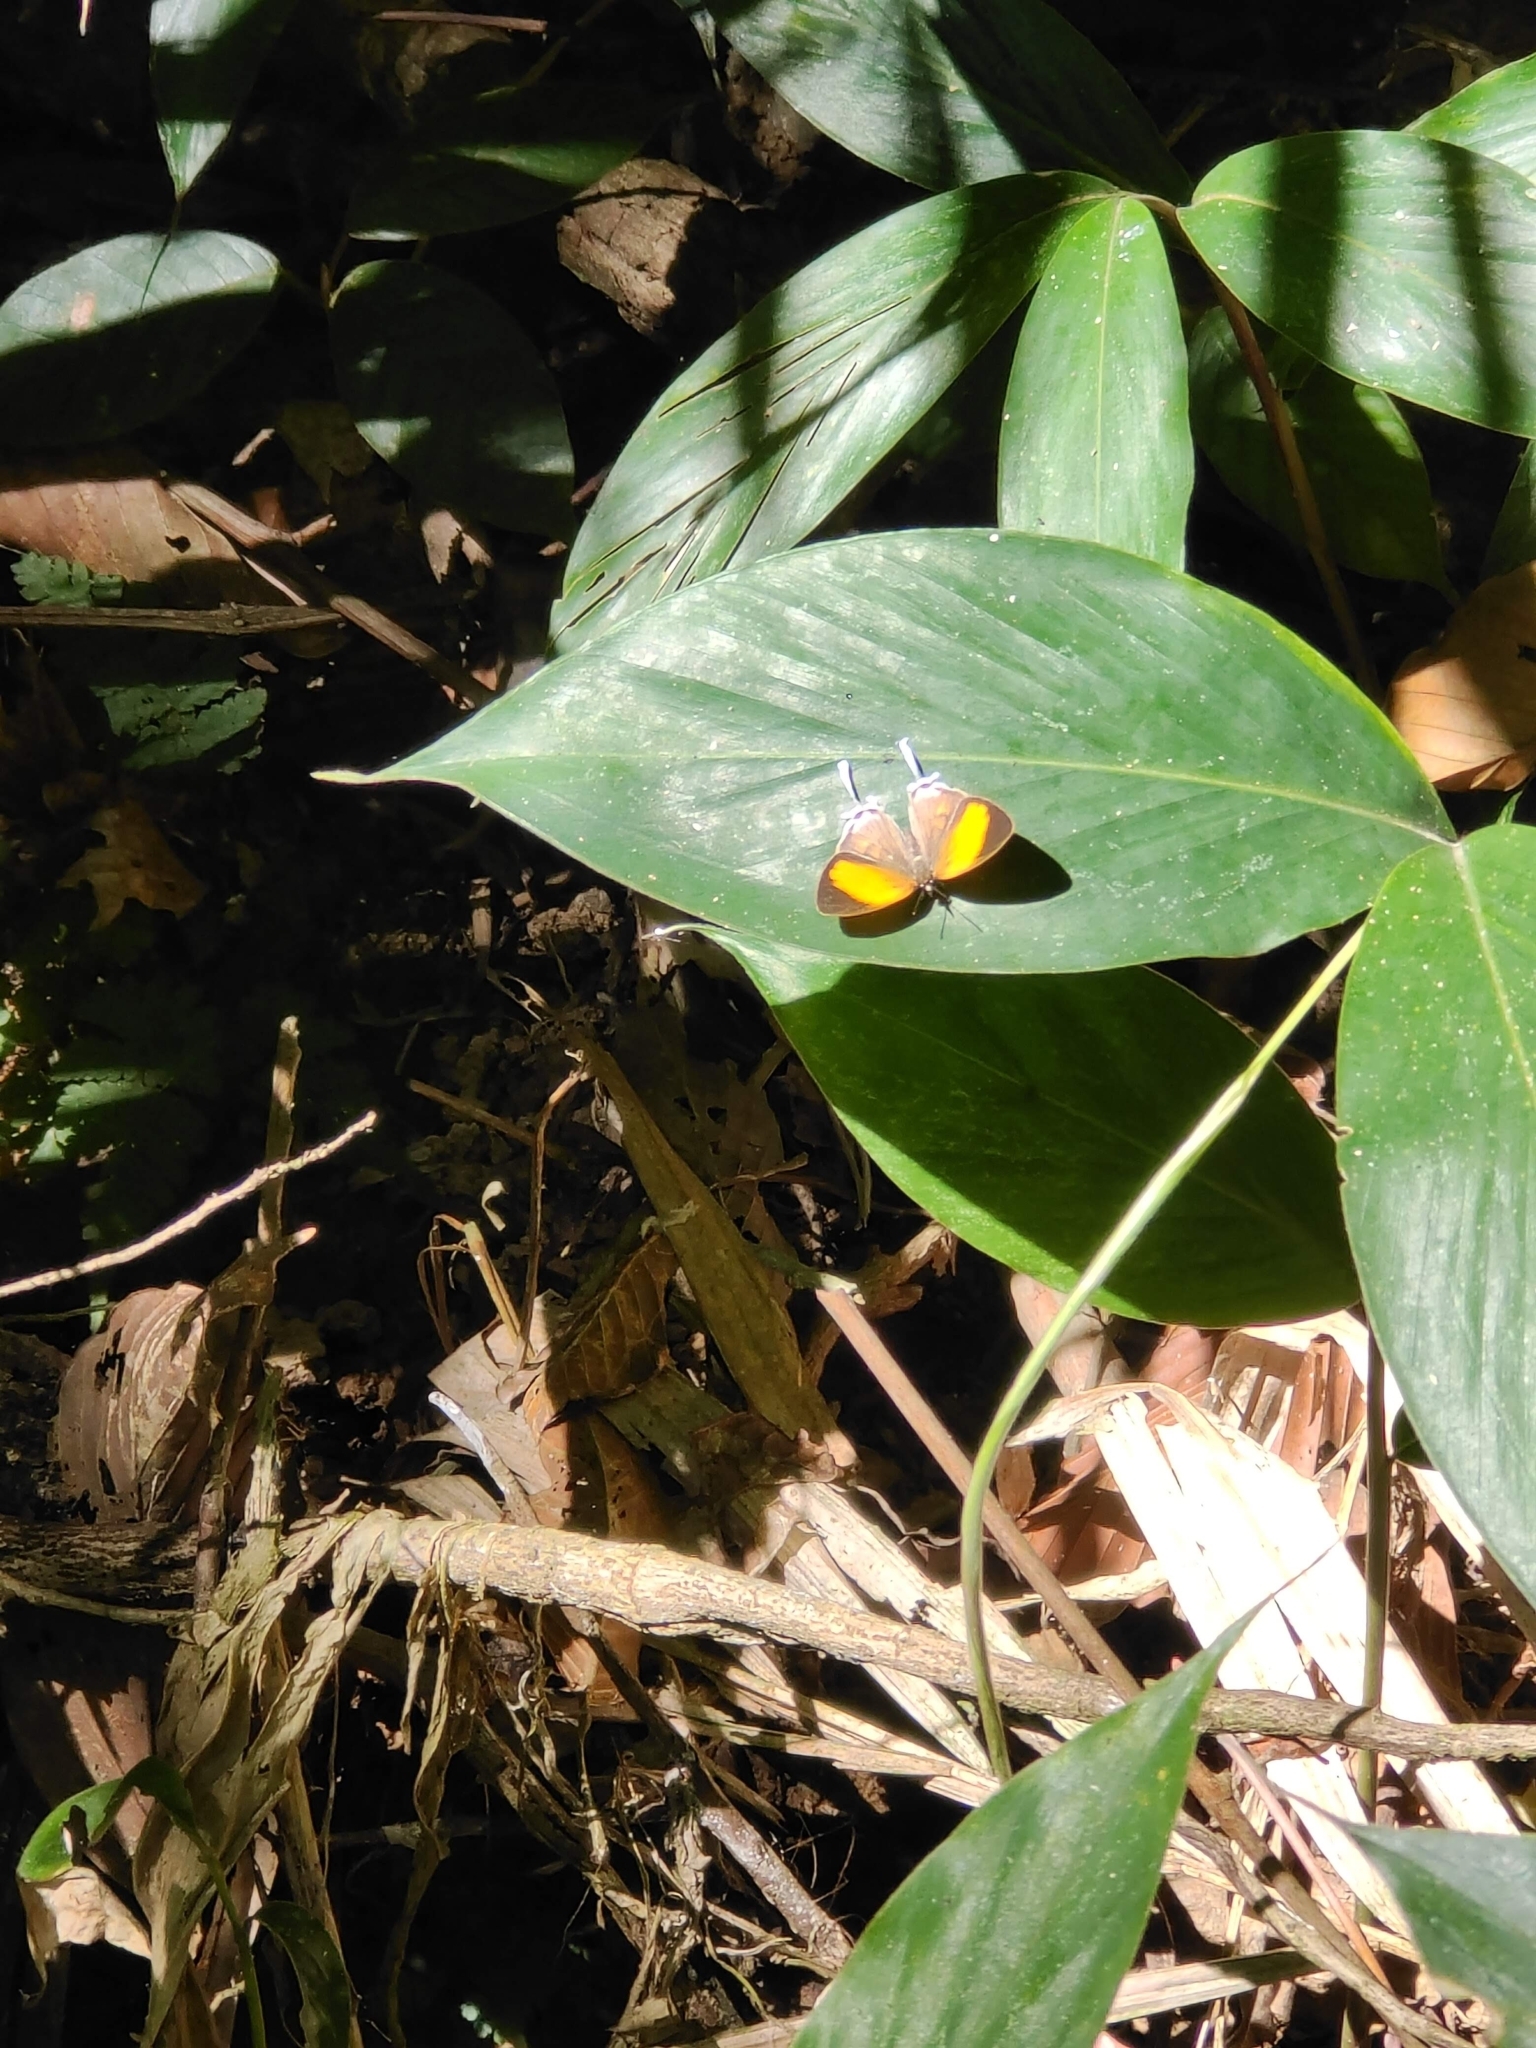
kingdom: Animalia
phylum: Arthropoda
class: Insecta
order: Lepidoptera
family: Lycaenidae
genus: Drupadia
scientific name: Drupadia ravindra
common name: Common posy
